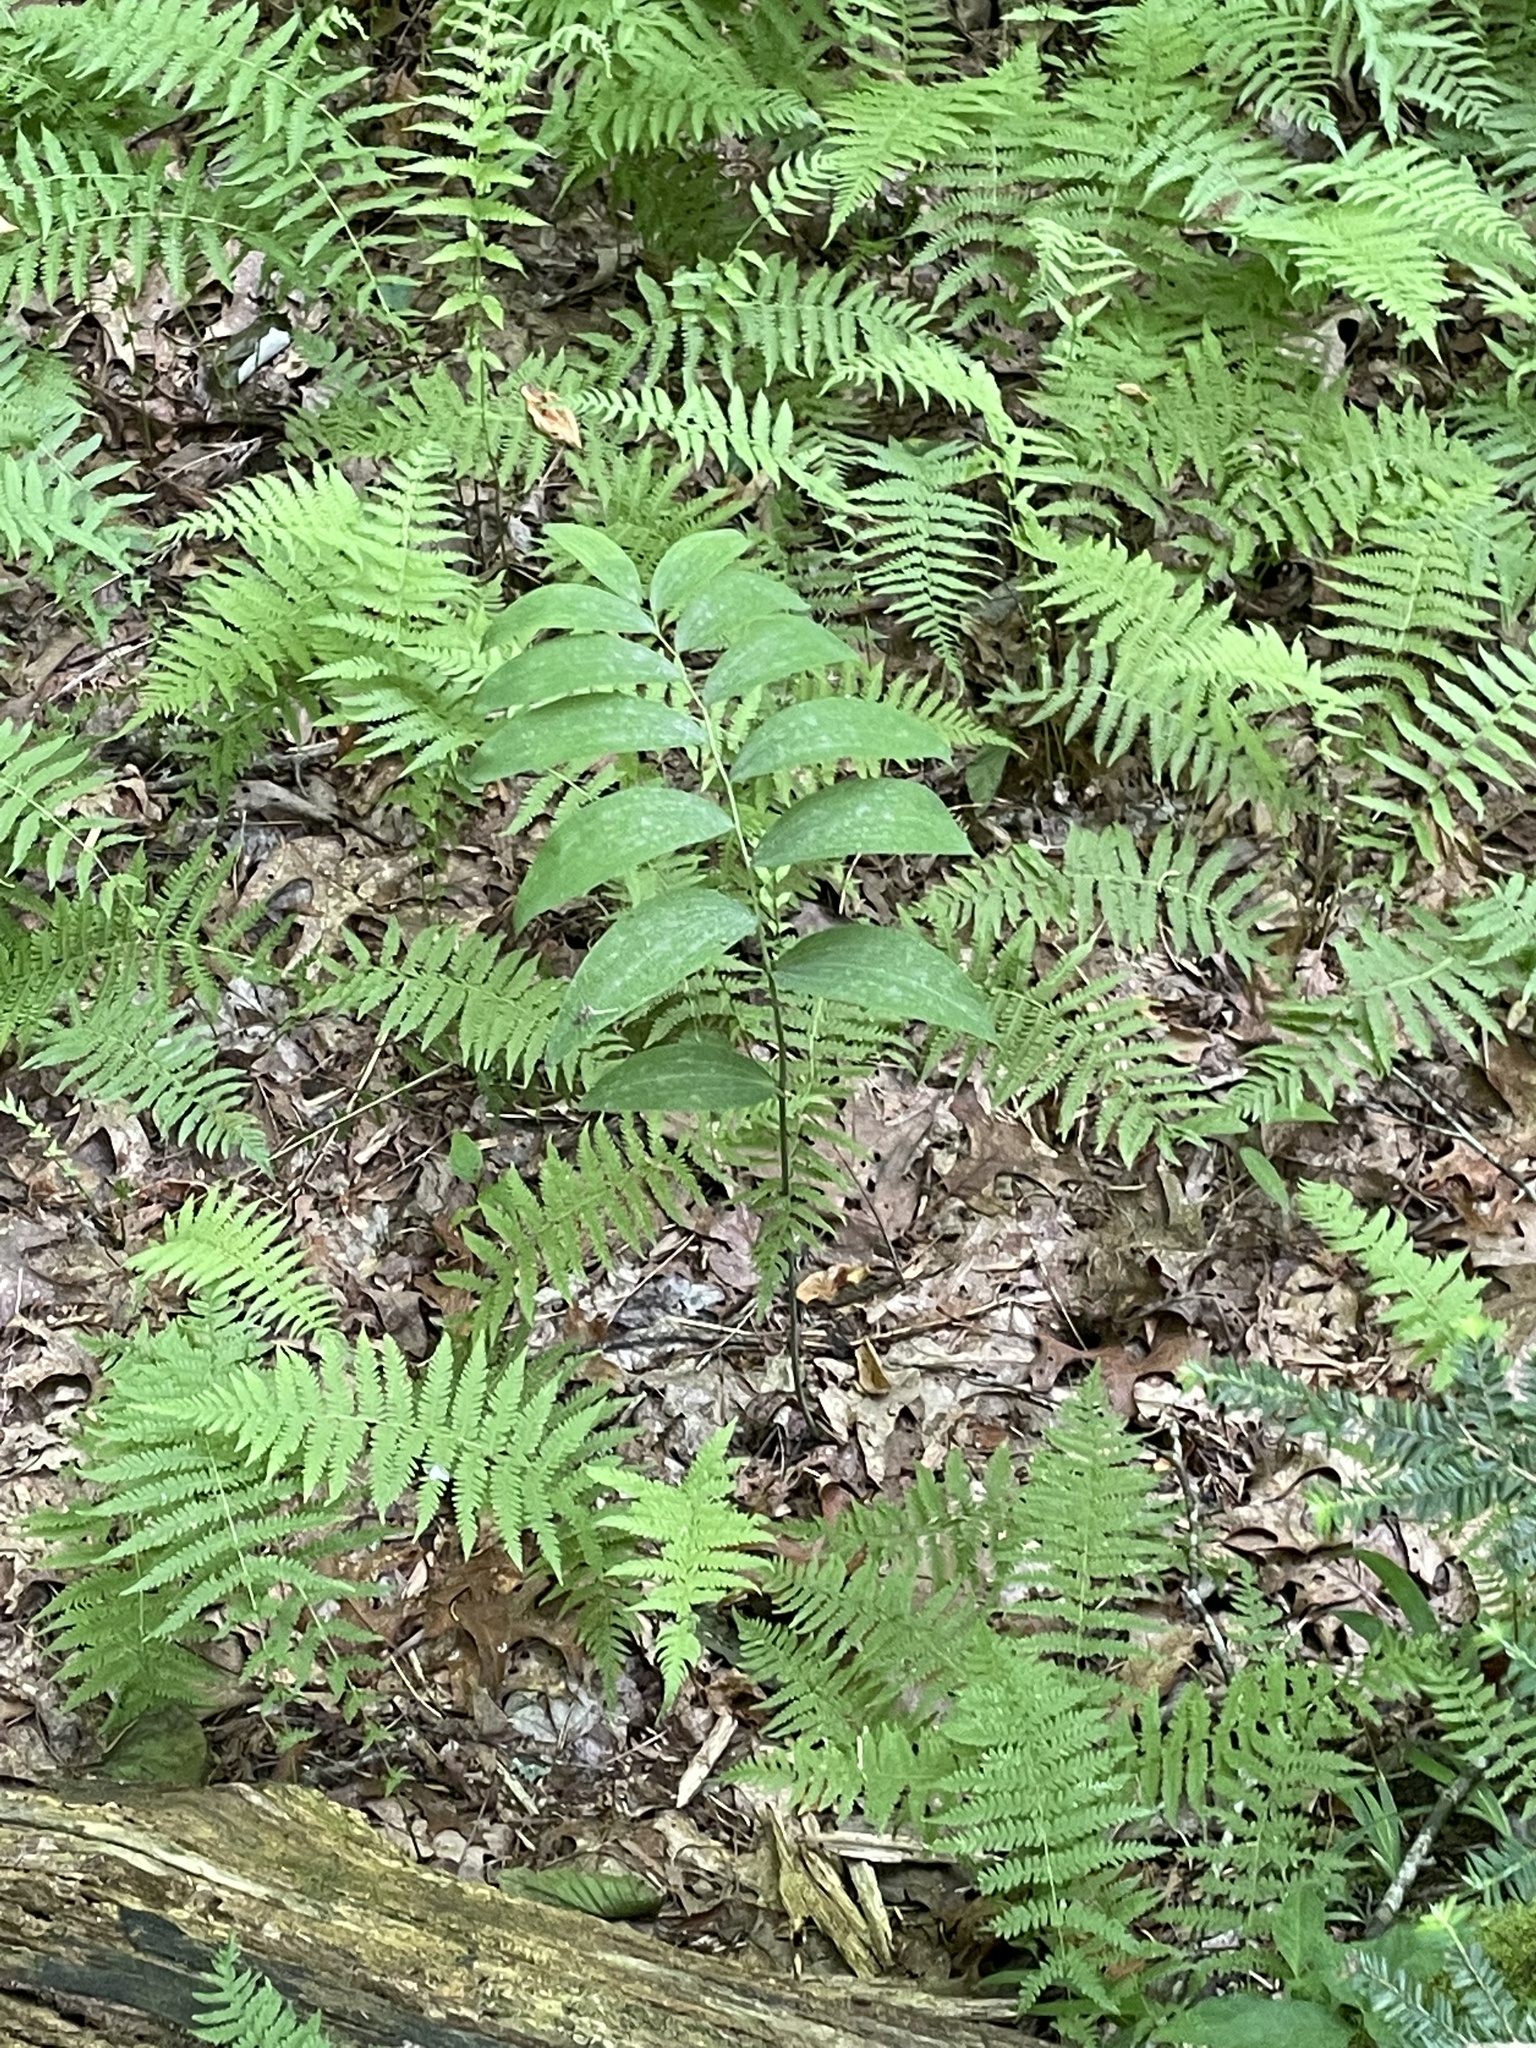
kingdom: Plantae
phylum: Tracheophyta
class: Liliopsida
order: Asparagales
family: Asparagaceae
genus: Polygonatum
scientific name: Polygonatum biflorum
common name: American solomon's-seal
